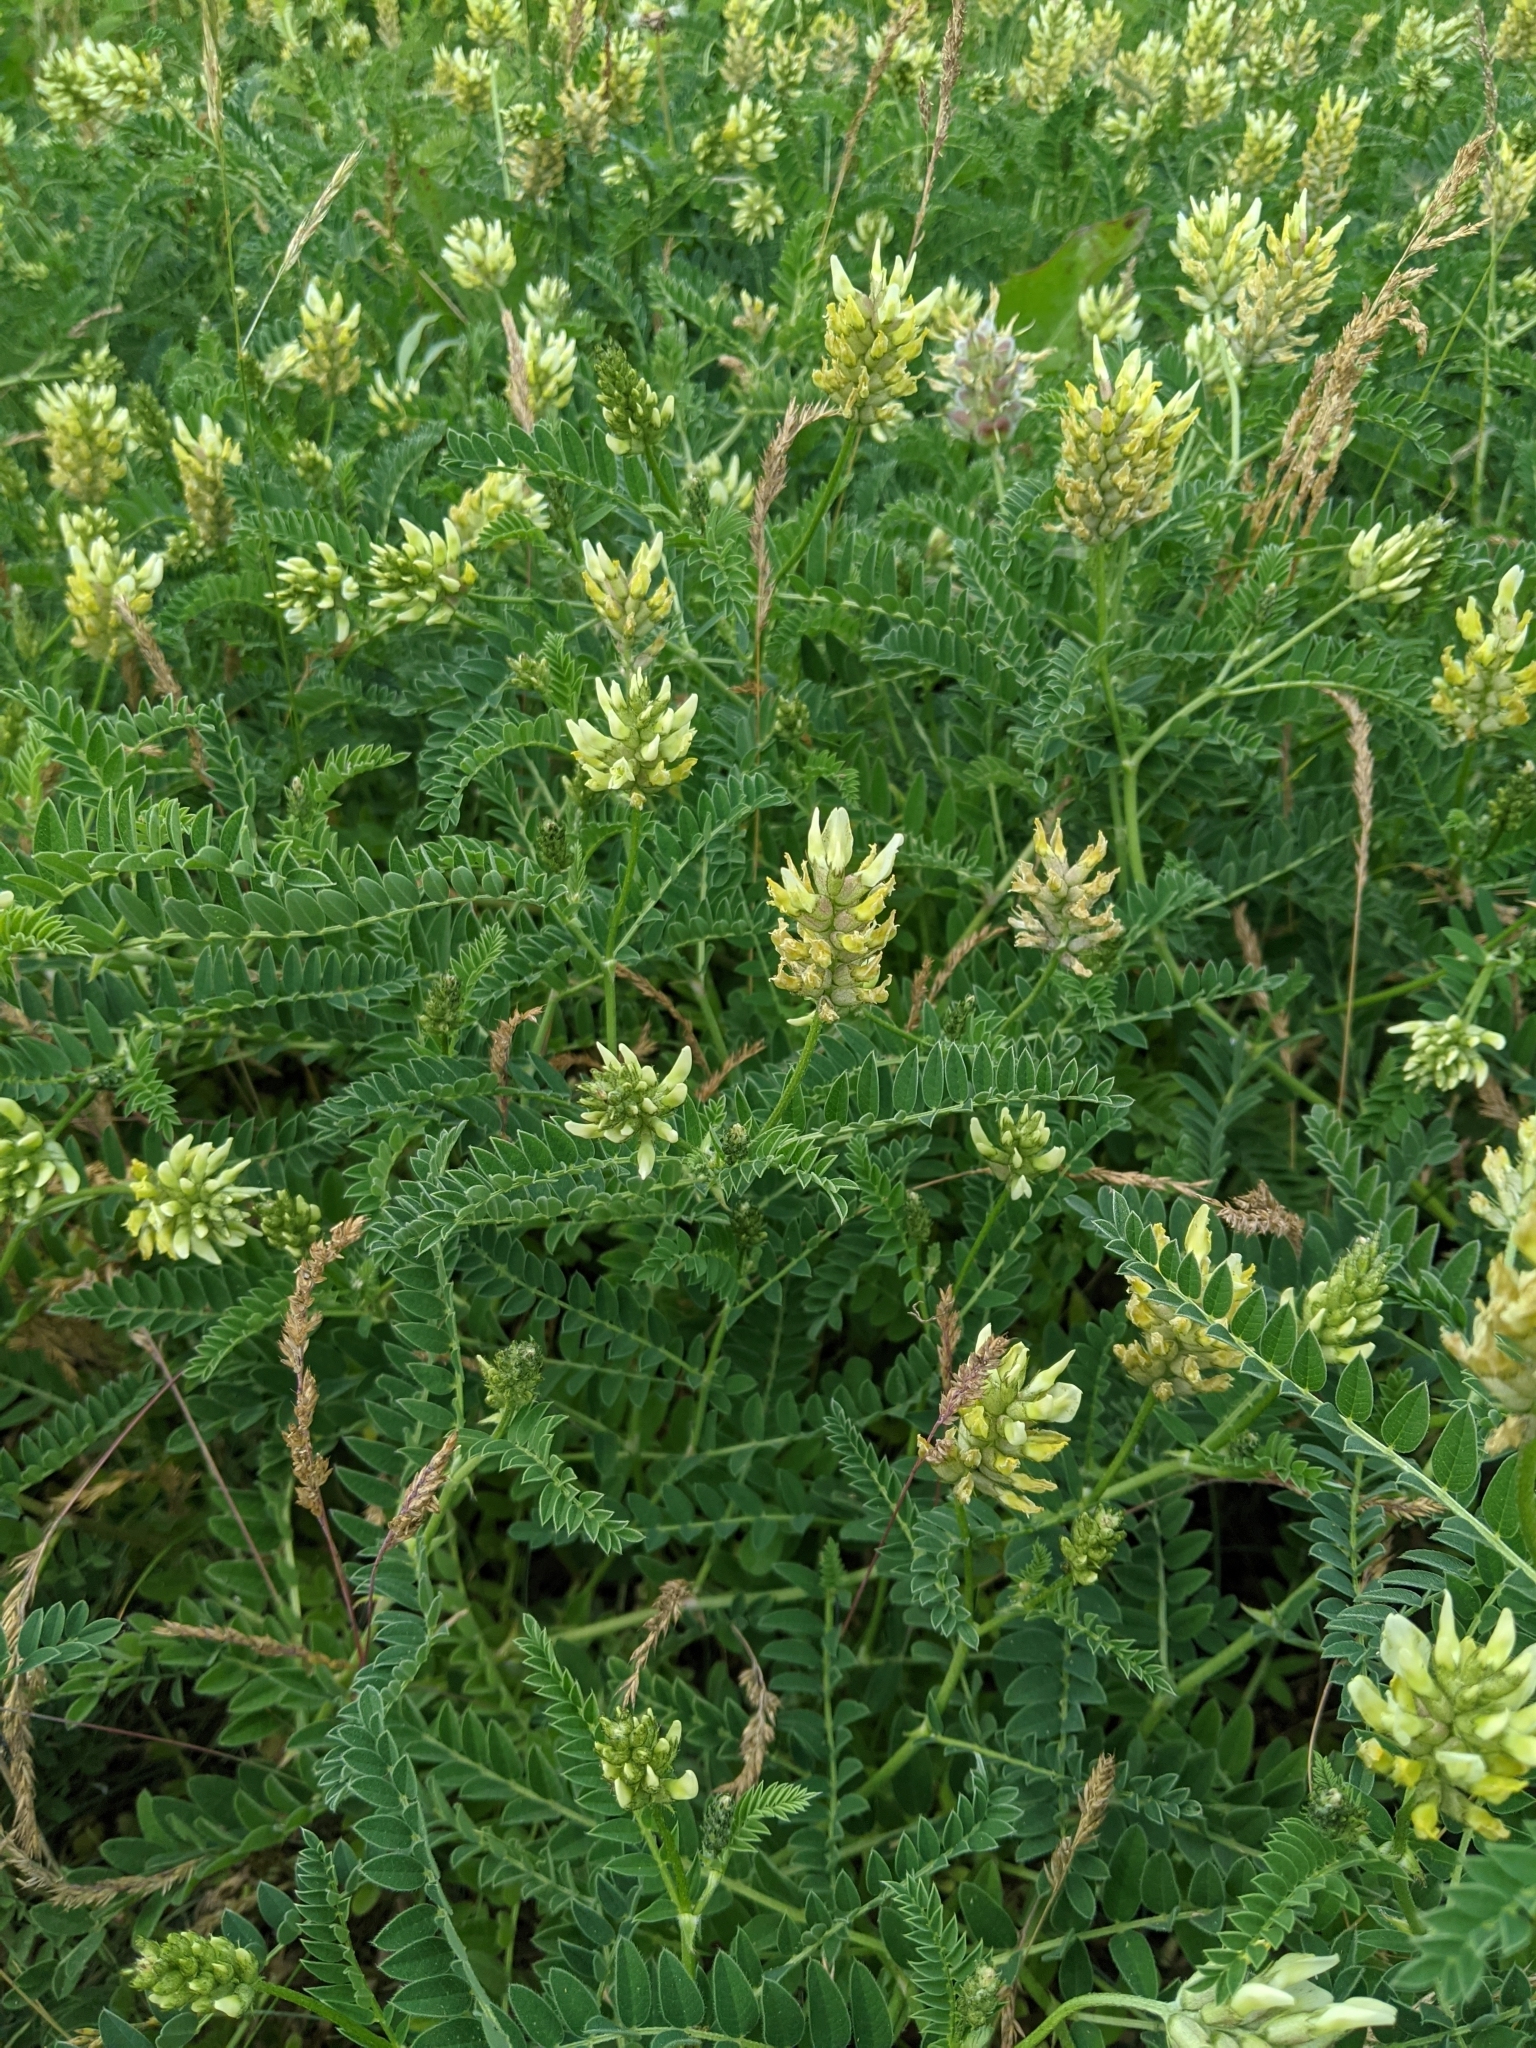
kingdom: Plantae
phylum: Tracheophyta
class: Magnoliopsida
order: Fabales
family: Fabaceae
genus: Astragalus
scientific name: Astragalus cicer
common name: Chick-pea milk-vetch
